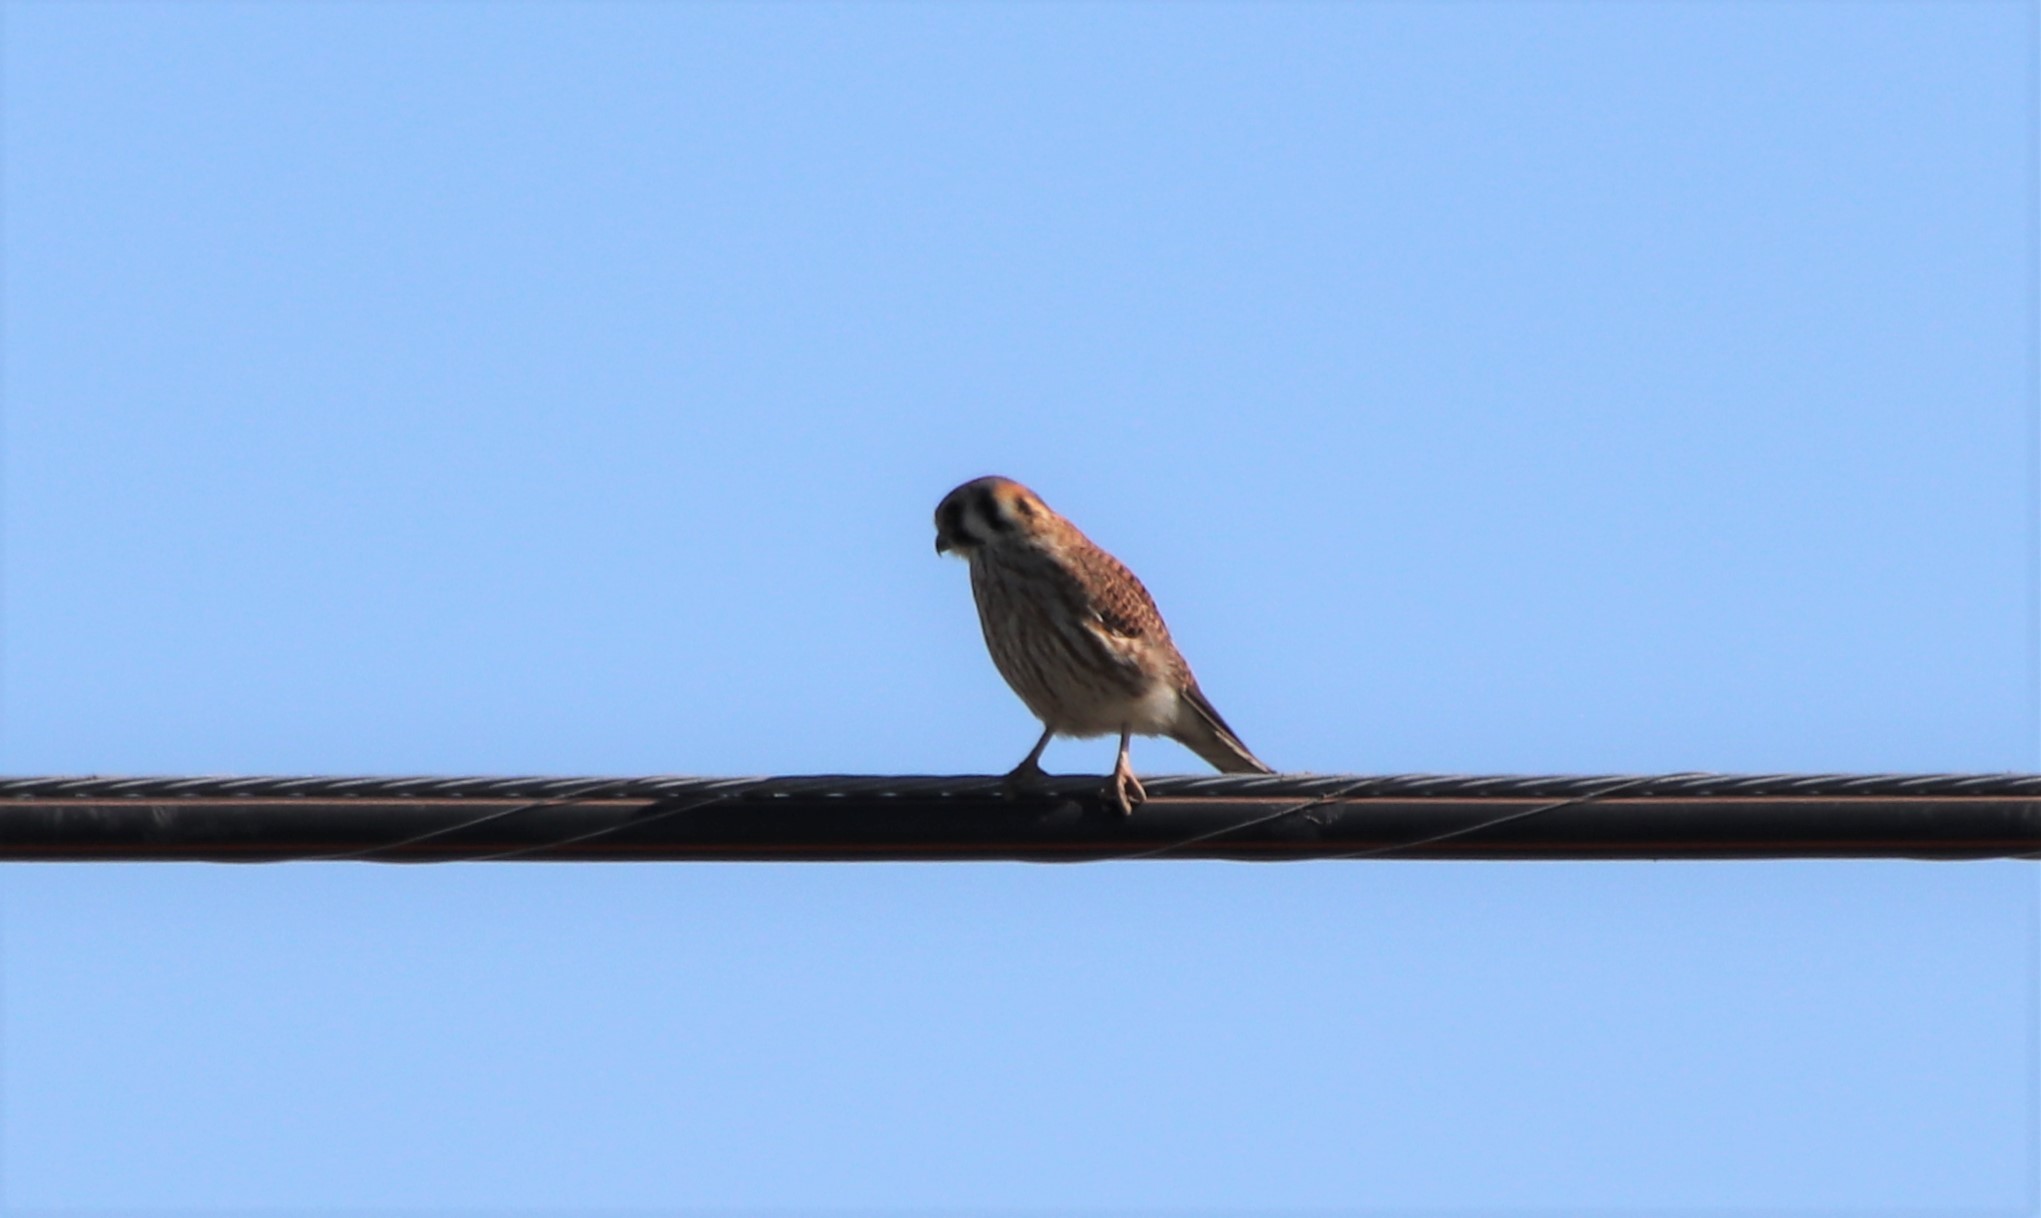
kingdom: Animalia
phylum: Chordata
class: Aves
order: Falconiformes
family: Falconidae
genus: Falco
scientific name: Falco sparverius
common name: American kestrel
